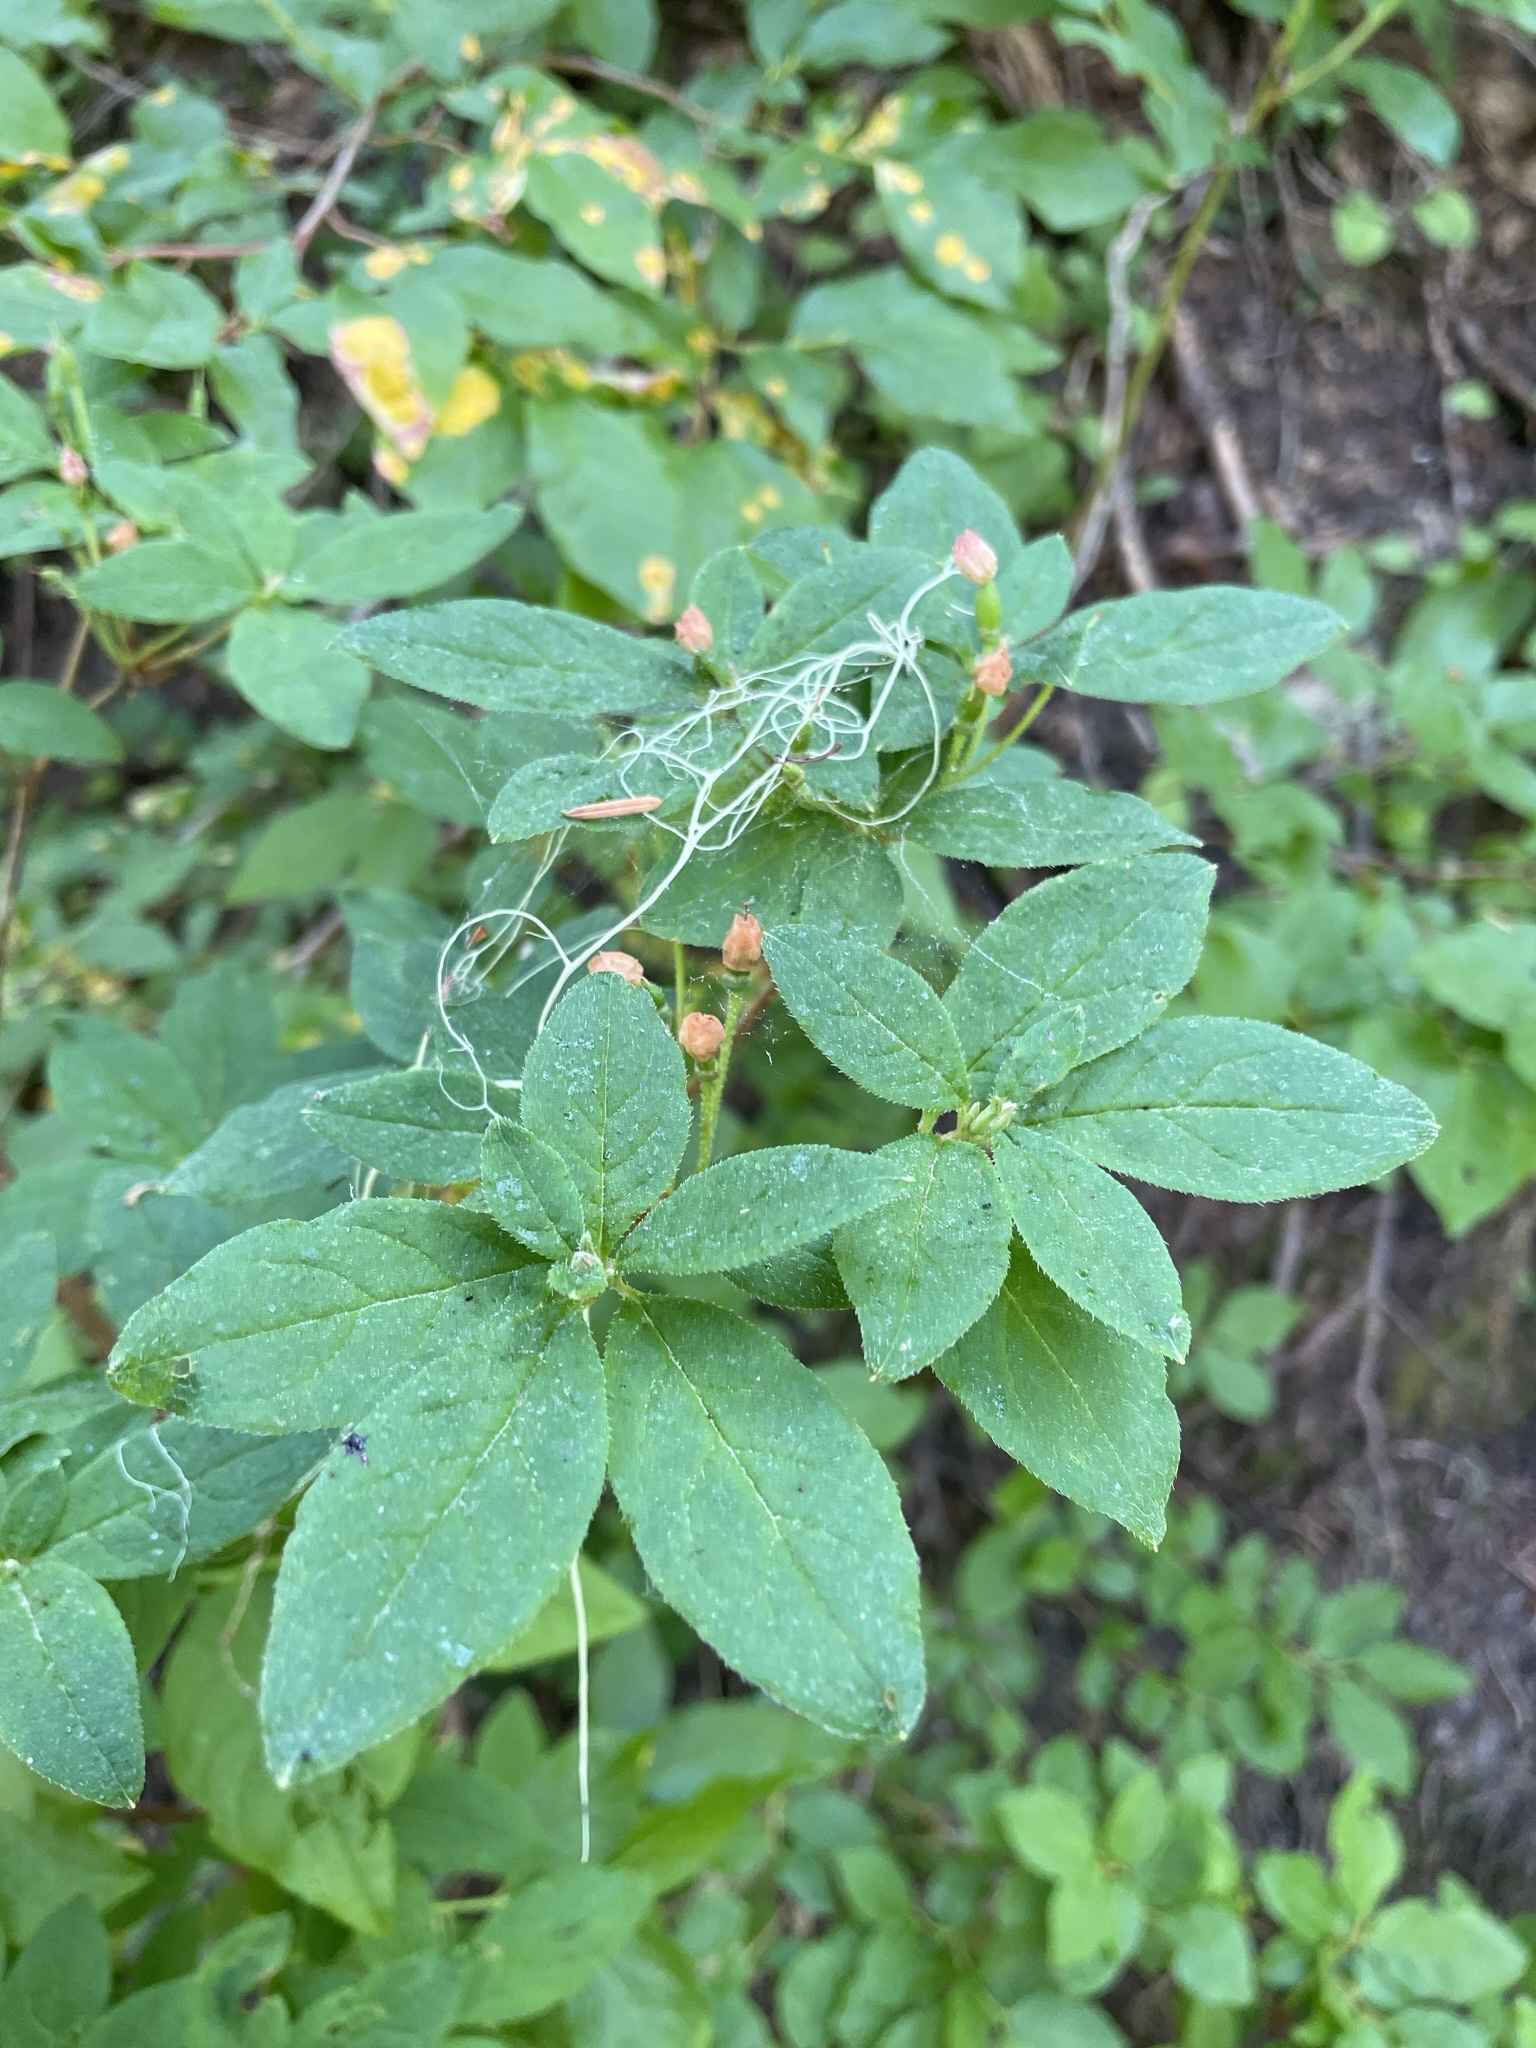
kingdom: Plantae
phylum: Tracheophyta
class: Magnoliopsida
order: Ericales
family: Ericaceae
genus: Rhododendron
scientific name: Rhododendron menziesii
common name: Pacific menziesia
